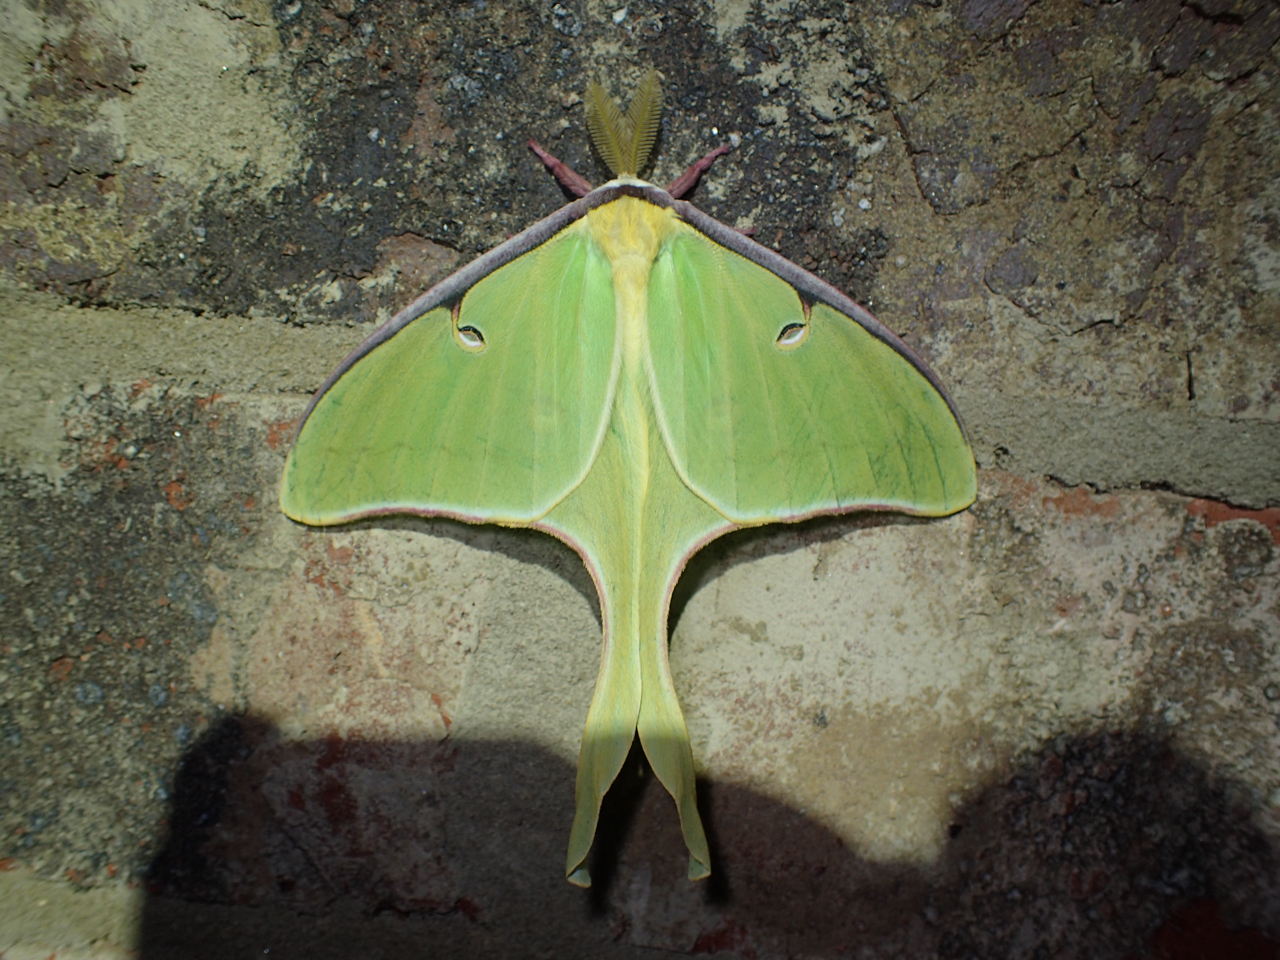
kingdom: Animalia
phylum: Arthropoda
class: Insecta
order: Lepidoptera
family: Saturniidae
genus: Actias
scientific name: Actias luna
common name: Luna moth
